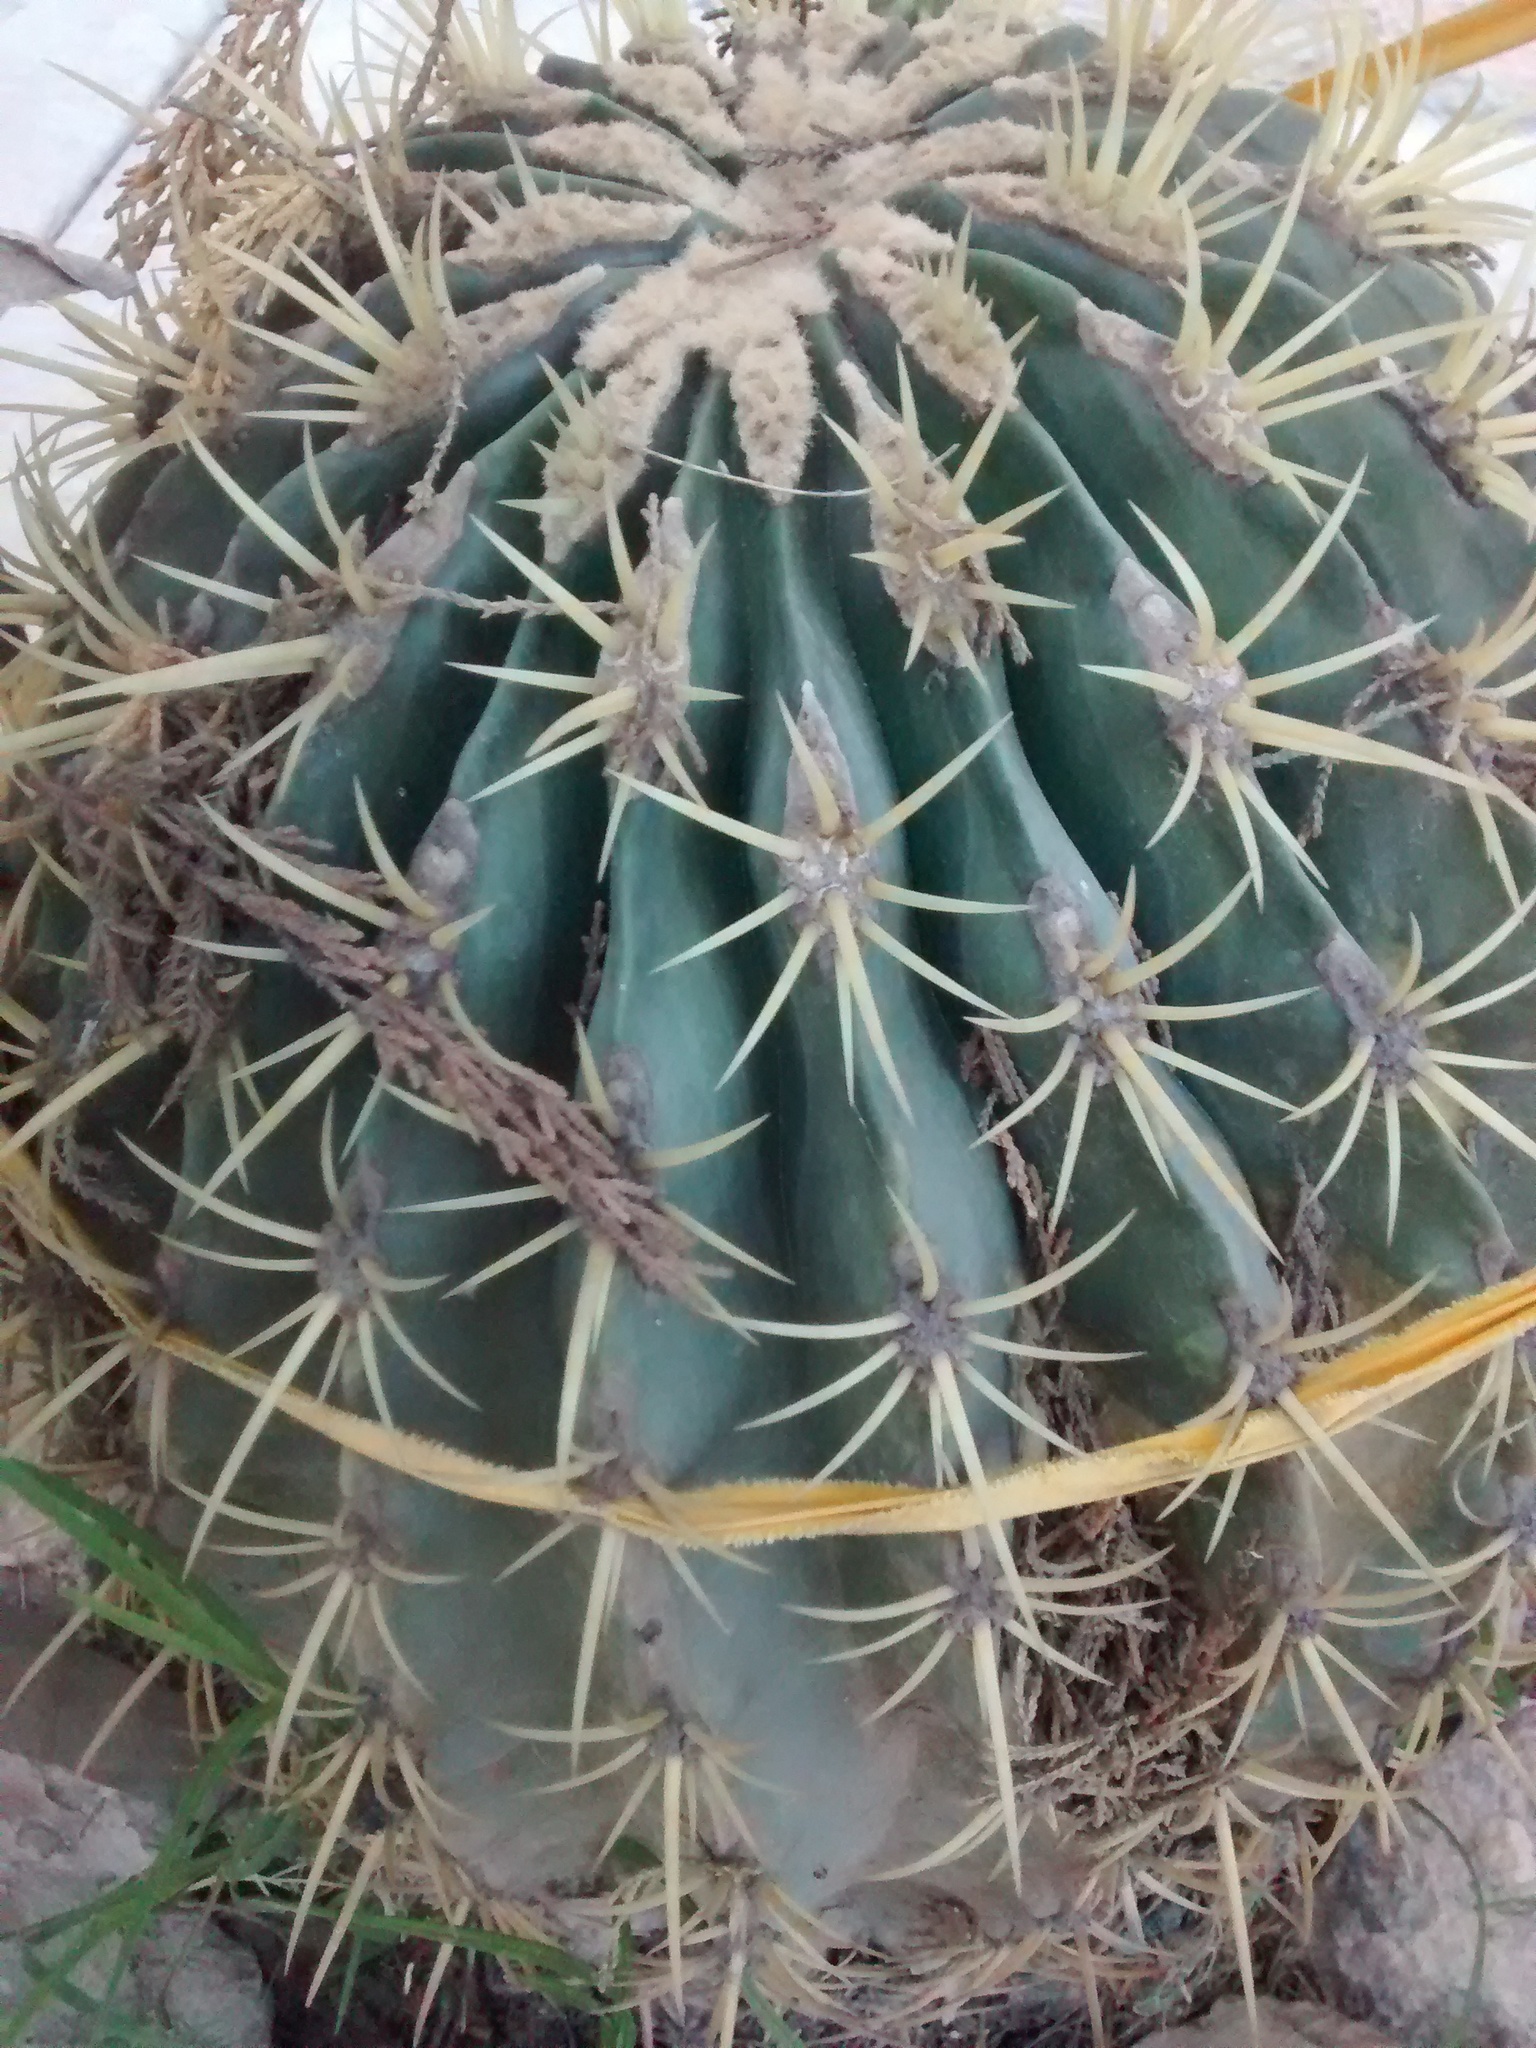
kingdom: Plantae
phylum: Tracheophyta
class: Magnoliopsida
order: Caryophyllales
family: Cactaceae
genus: Bisnaga
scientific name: Bisnaga histrix
